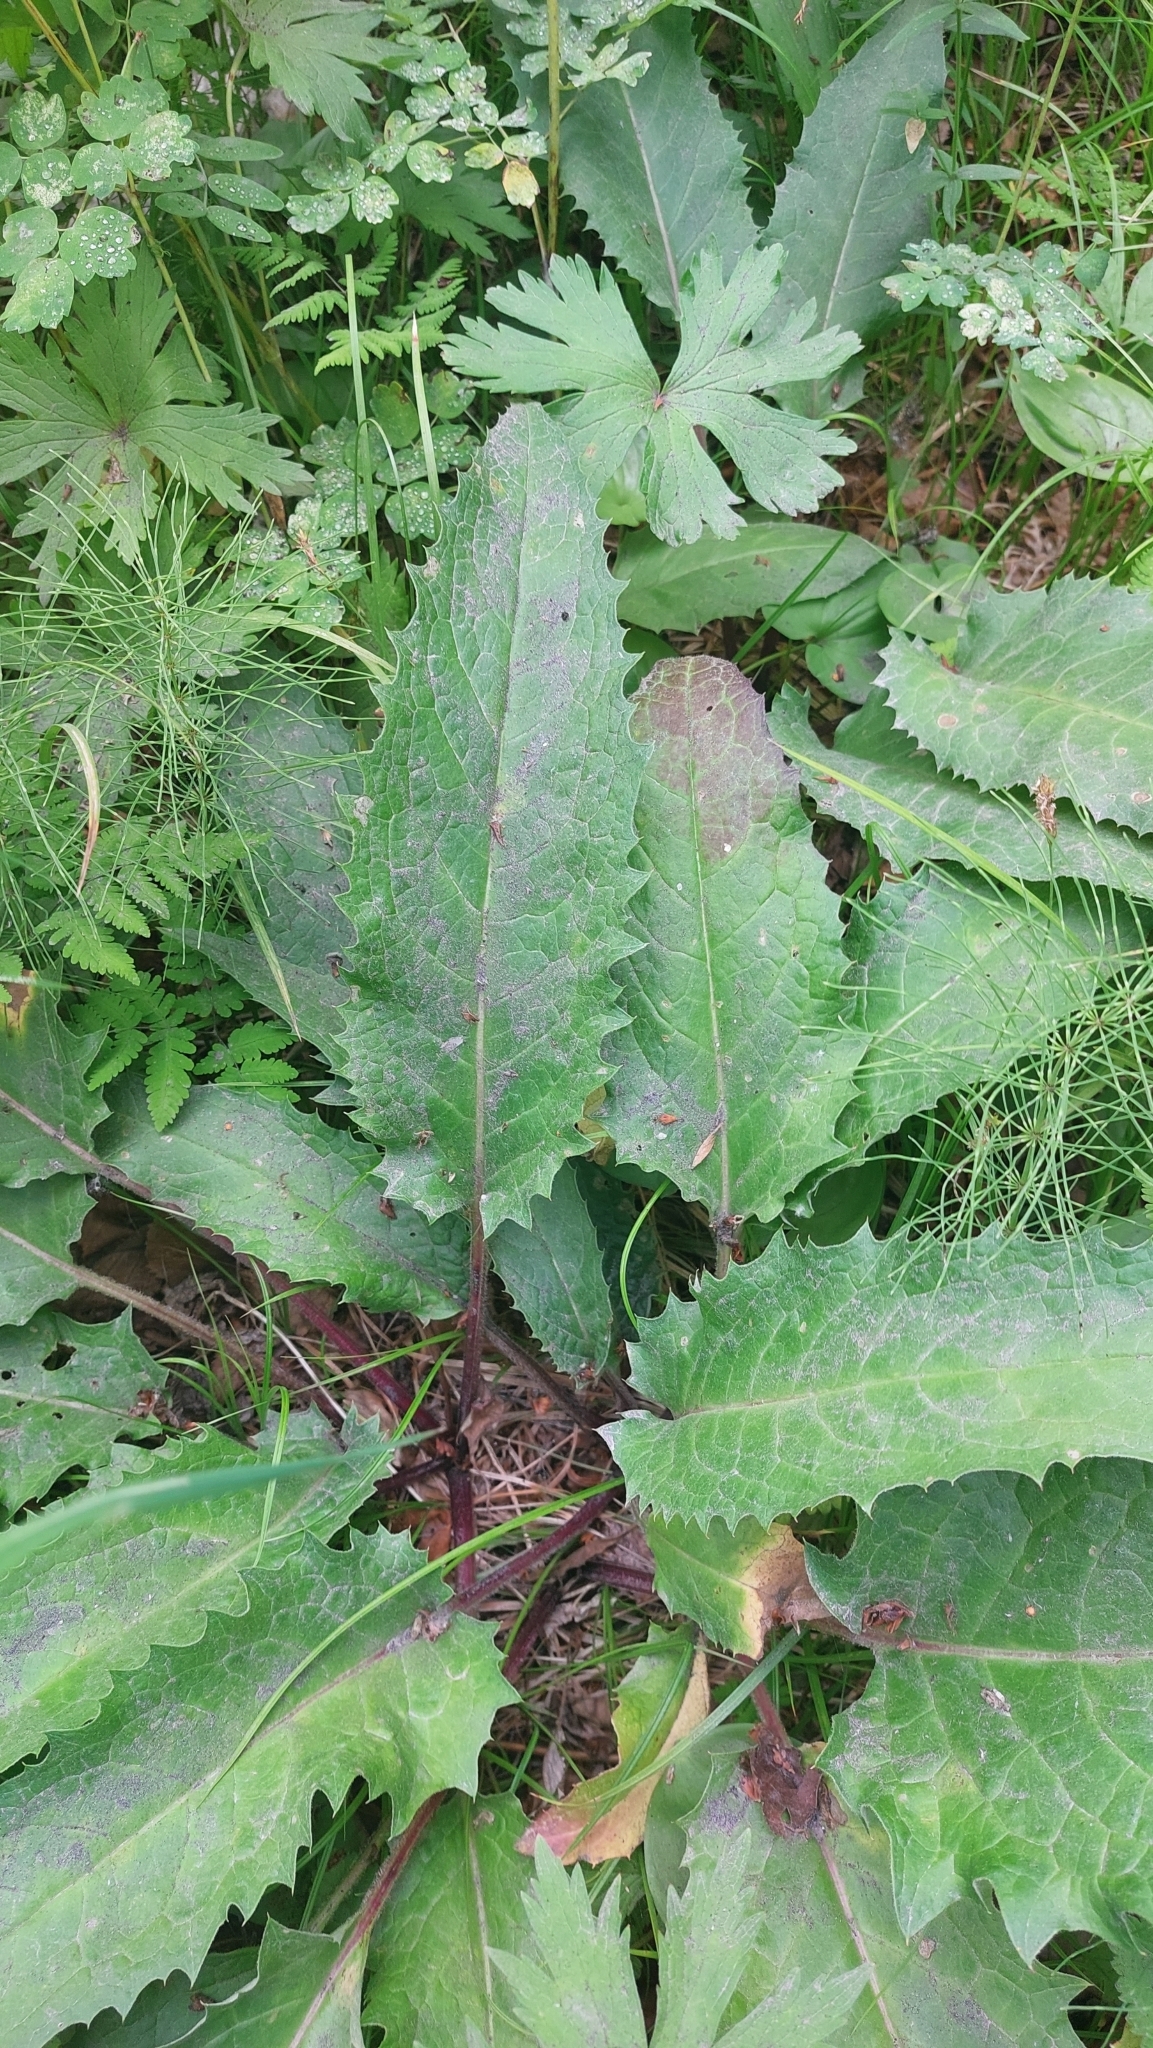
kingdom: Plantae
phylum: Tracheophyta
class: Magnoliopsida
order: Asterales
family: Asteraceae
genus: Saussurea
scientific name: Saussurea pseudotilesii
